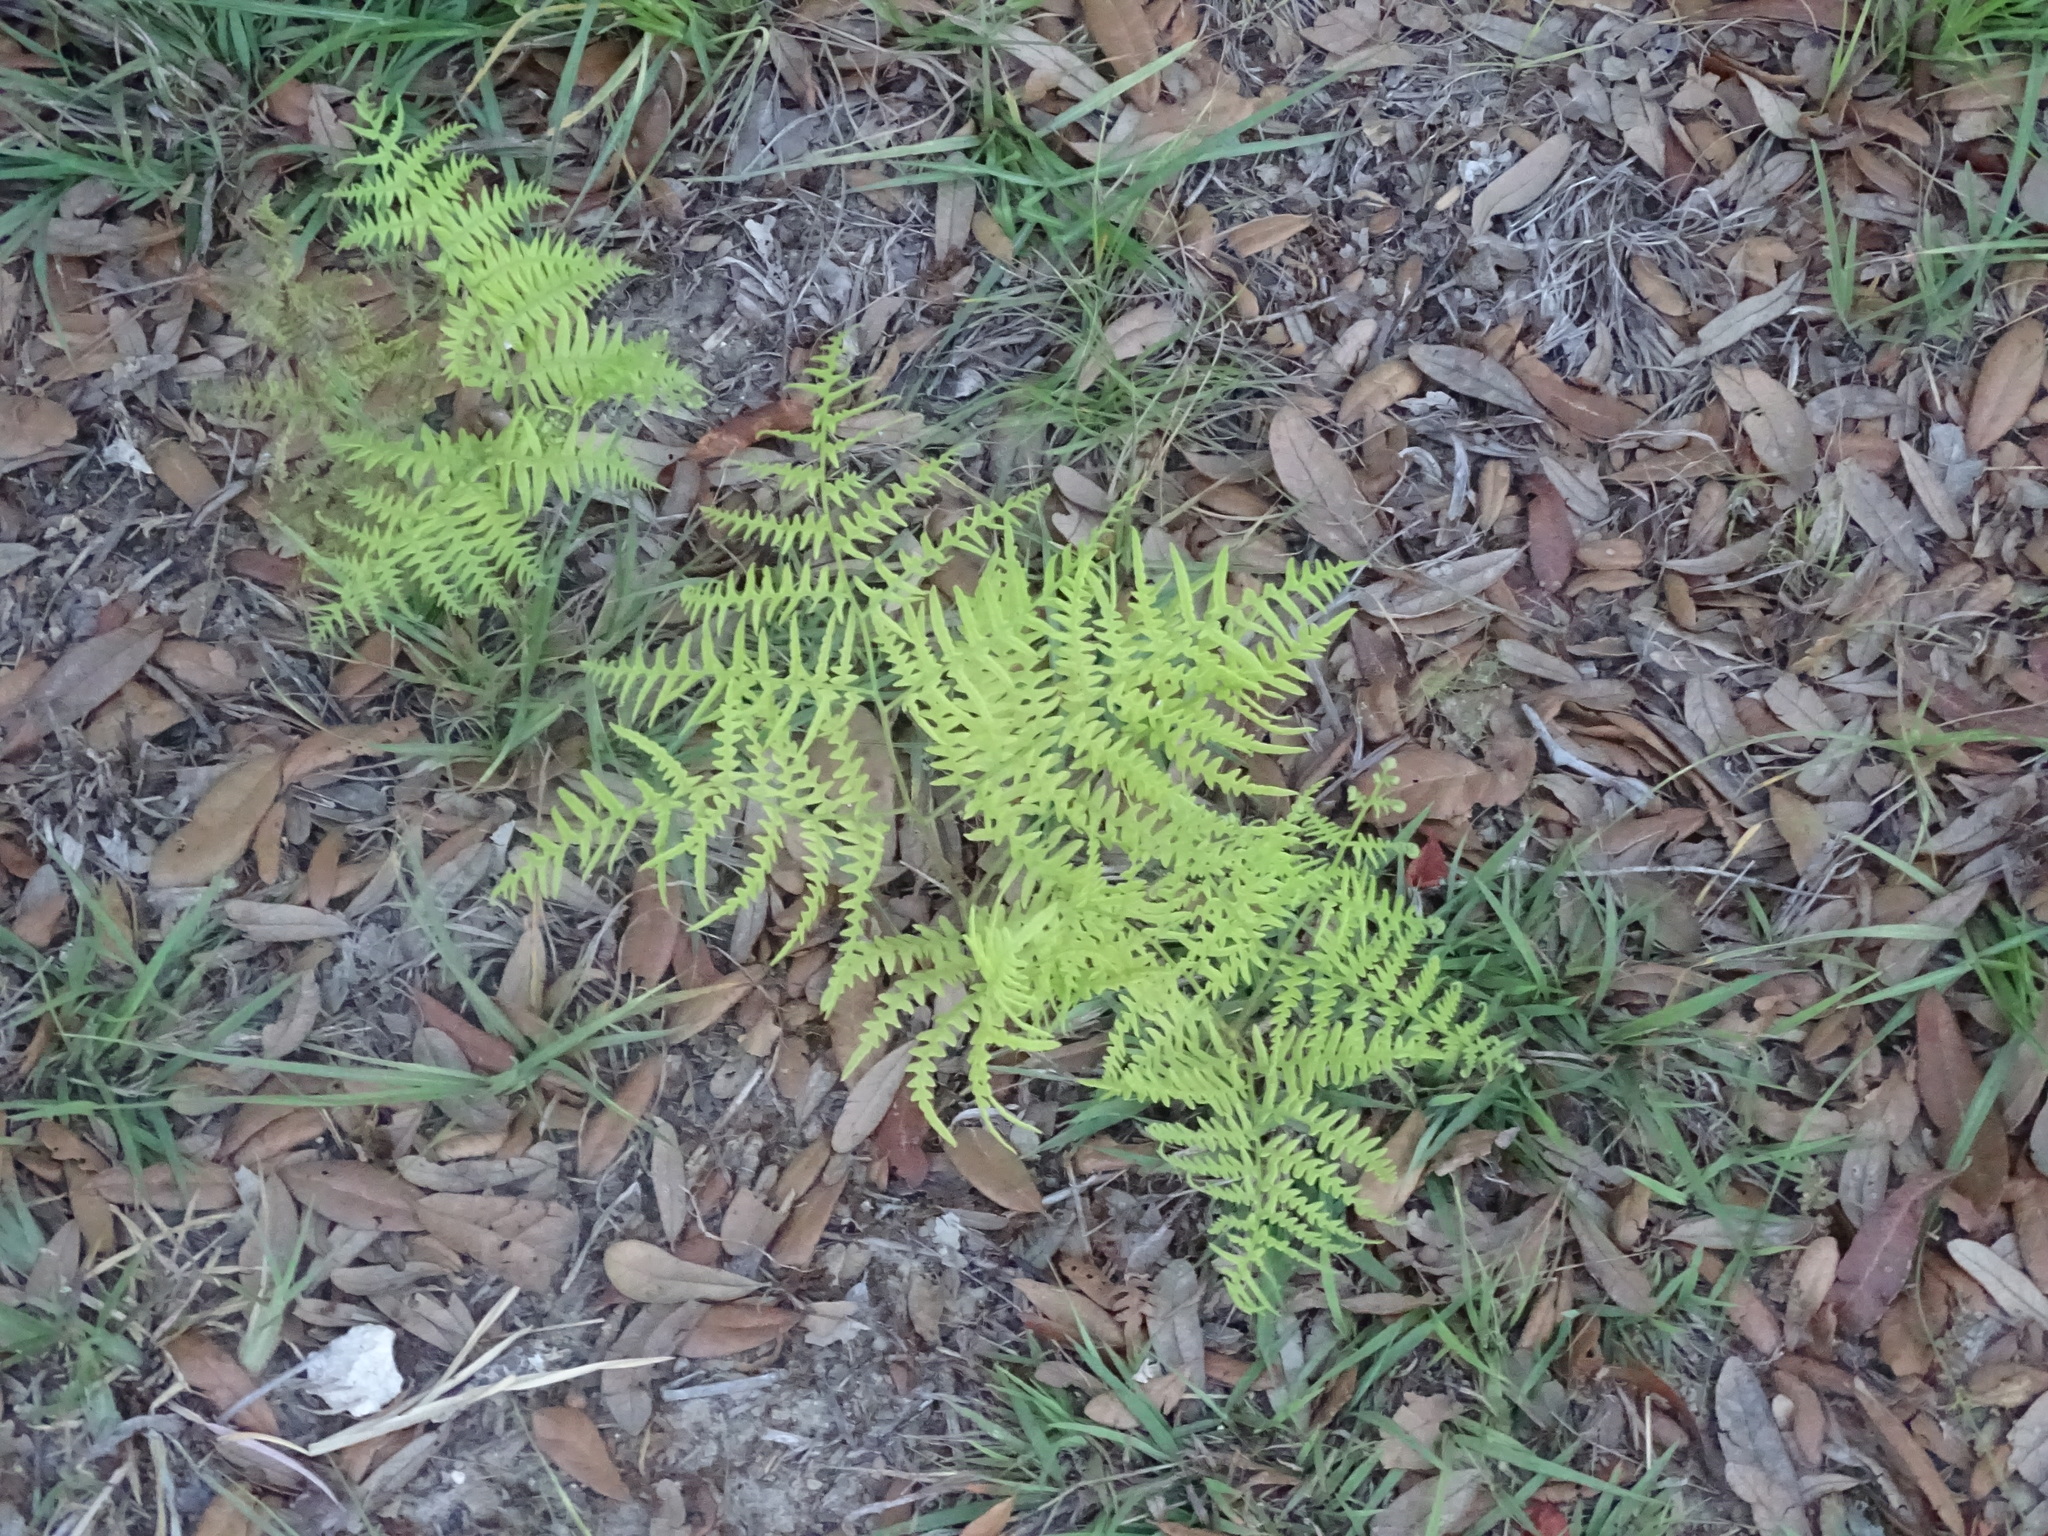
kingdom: Plantae
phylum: Tracheophyta
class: Polypodiopsida
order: Polypodiales
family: Dennstaedtiaceae
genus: Pteridium
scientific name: Pteridium
